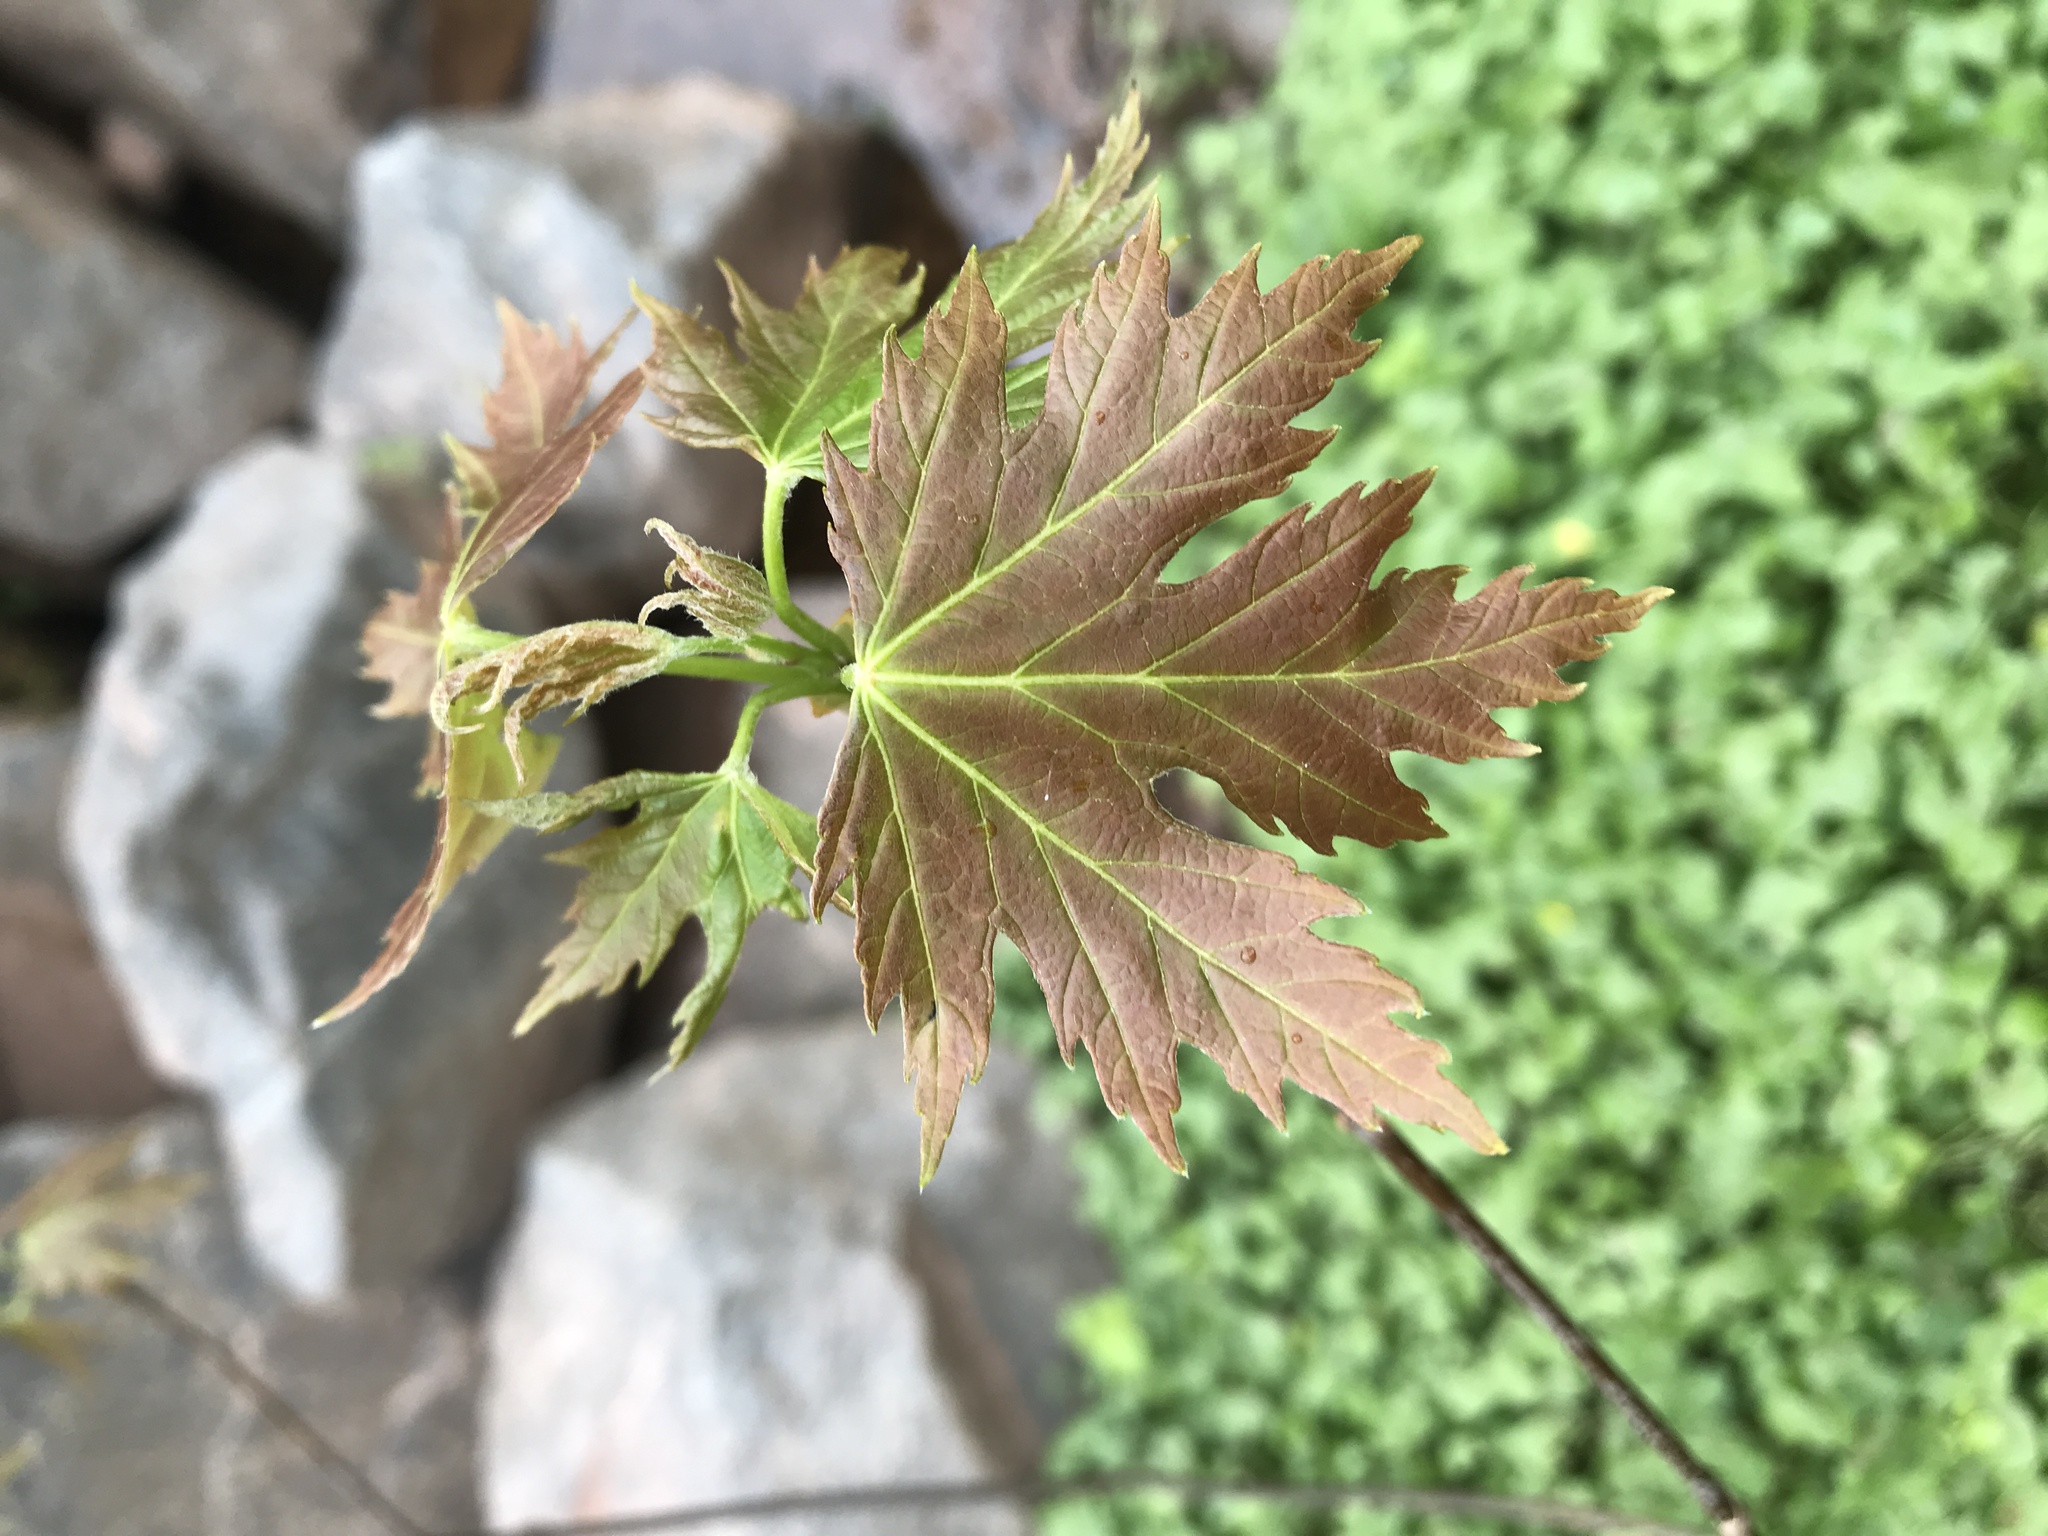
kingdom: Plantae
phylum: Tracheophyta
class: Magnoliopsida
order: Sapindales
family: Sapindaceae
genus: Acer
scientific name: Acer saccharinum
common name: Silver maple
